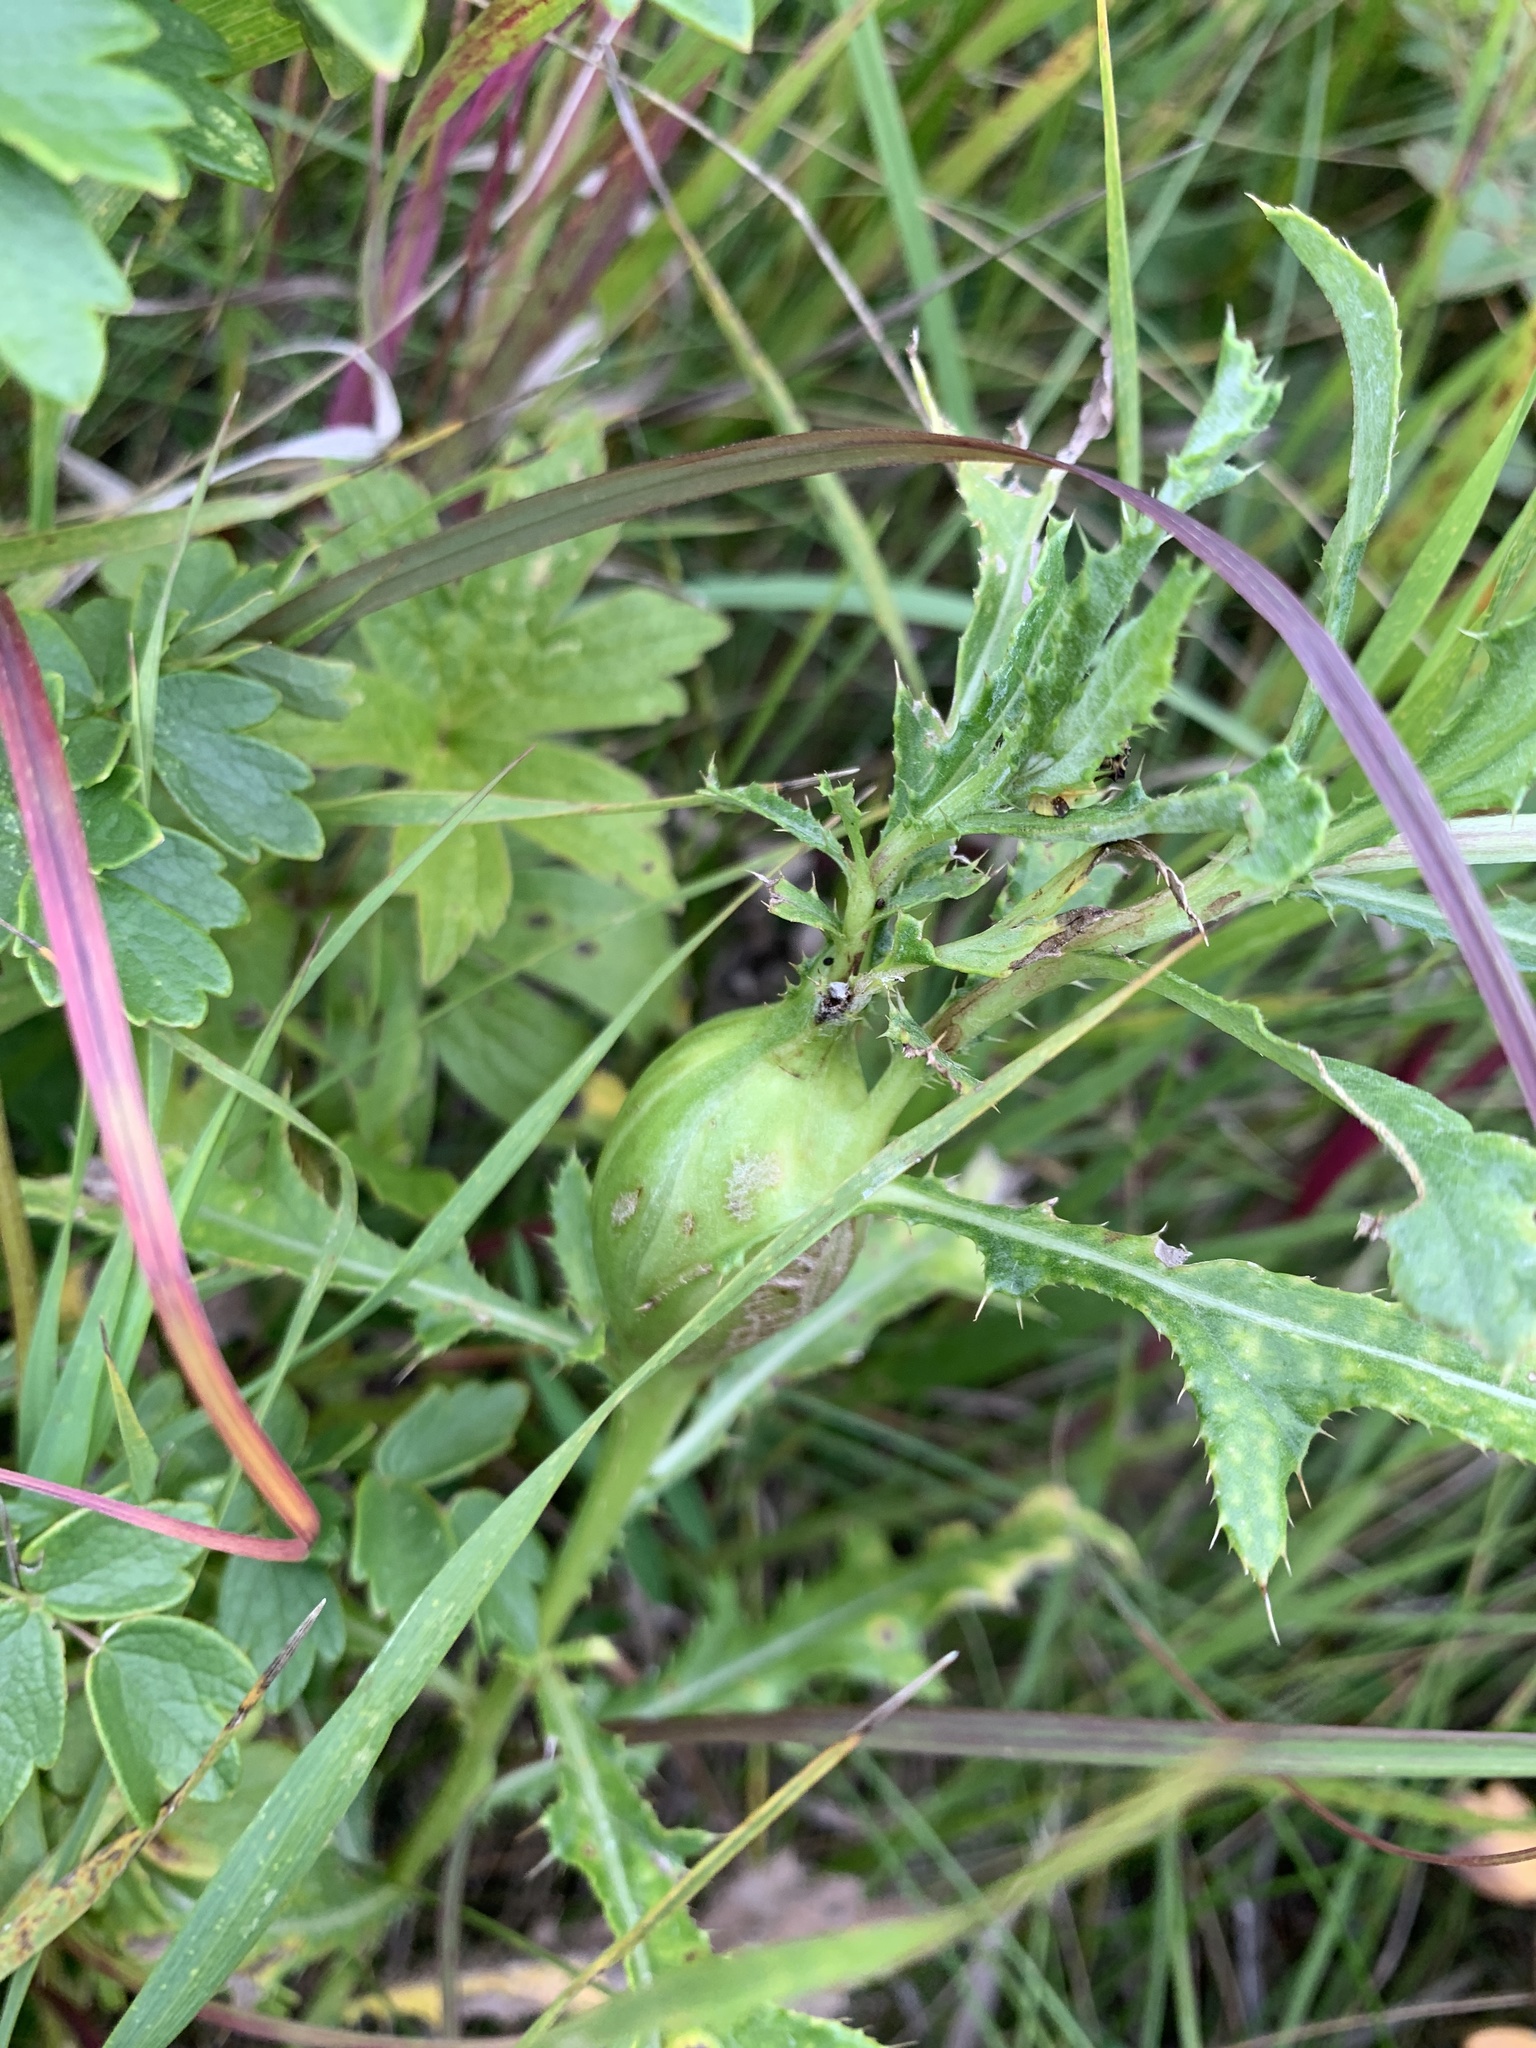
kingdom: Animalia
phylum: Arthropoda
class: Insecta
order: Diptera
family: Tephritidae
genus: Urophora
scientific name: Urophora cardui
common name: Fruit fly
